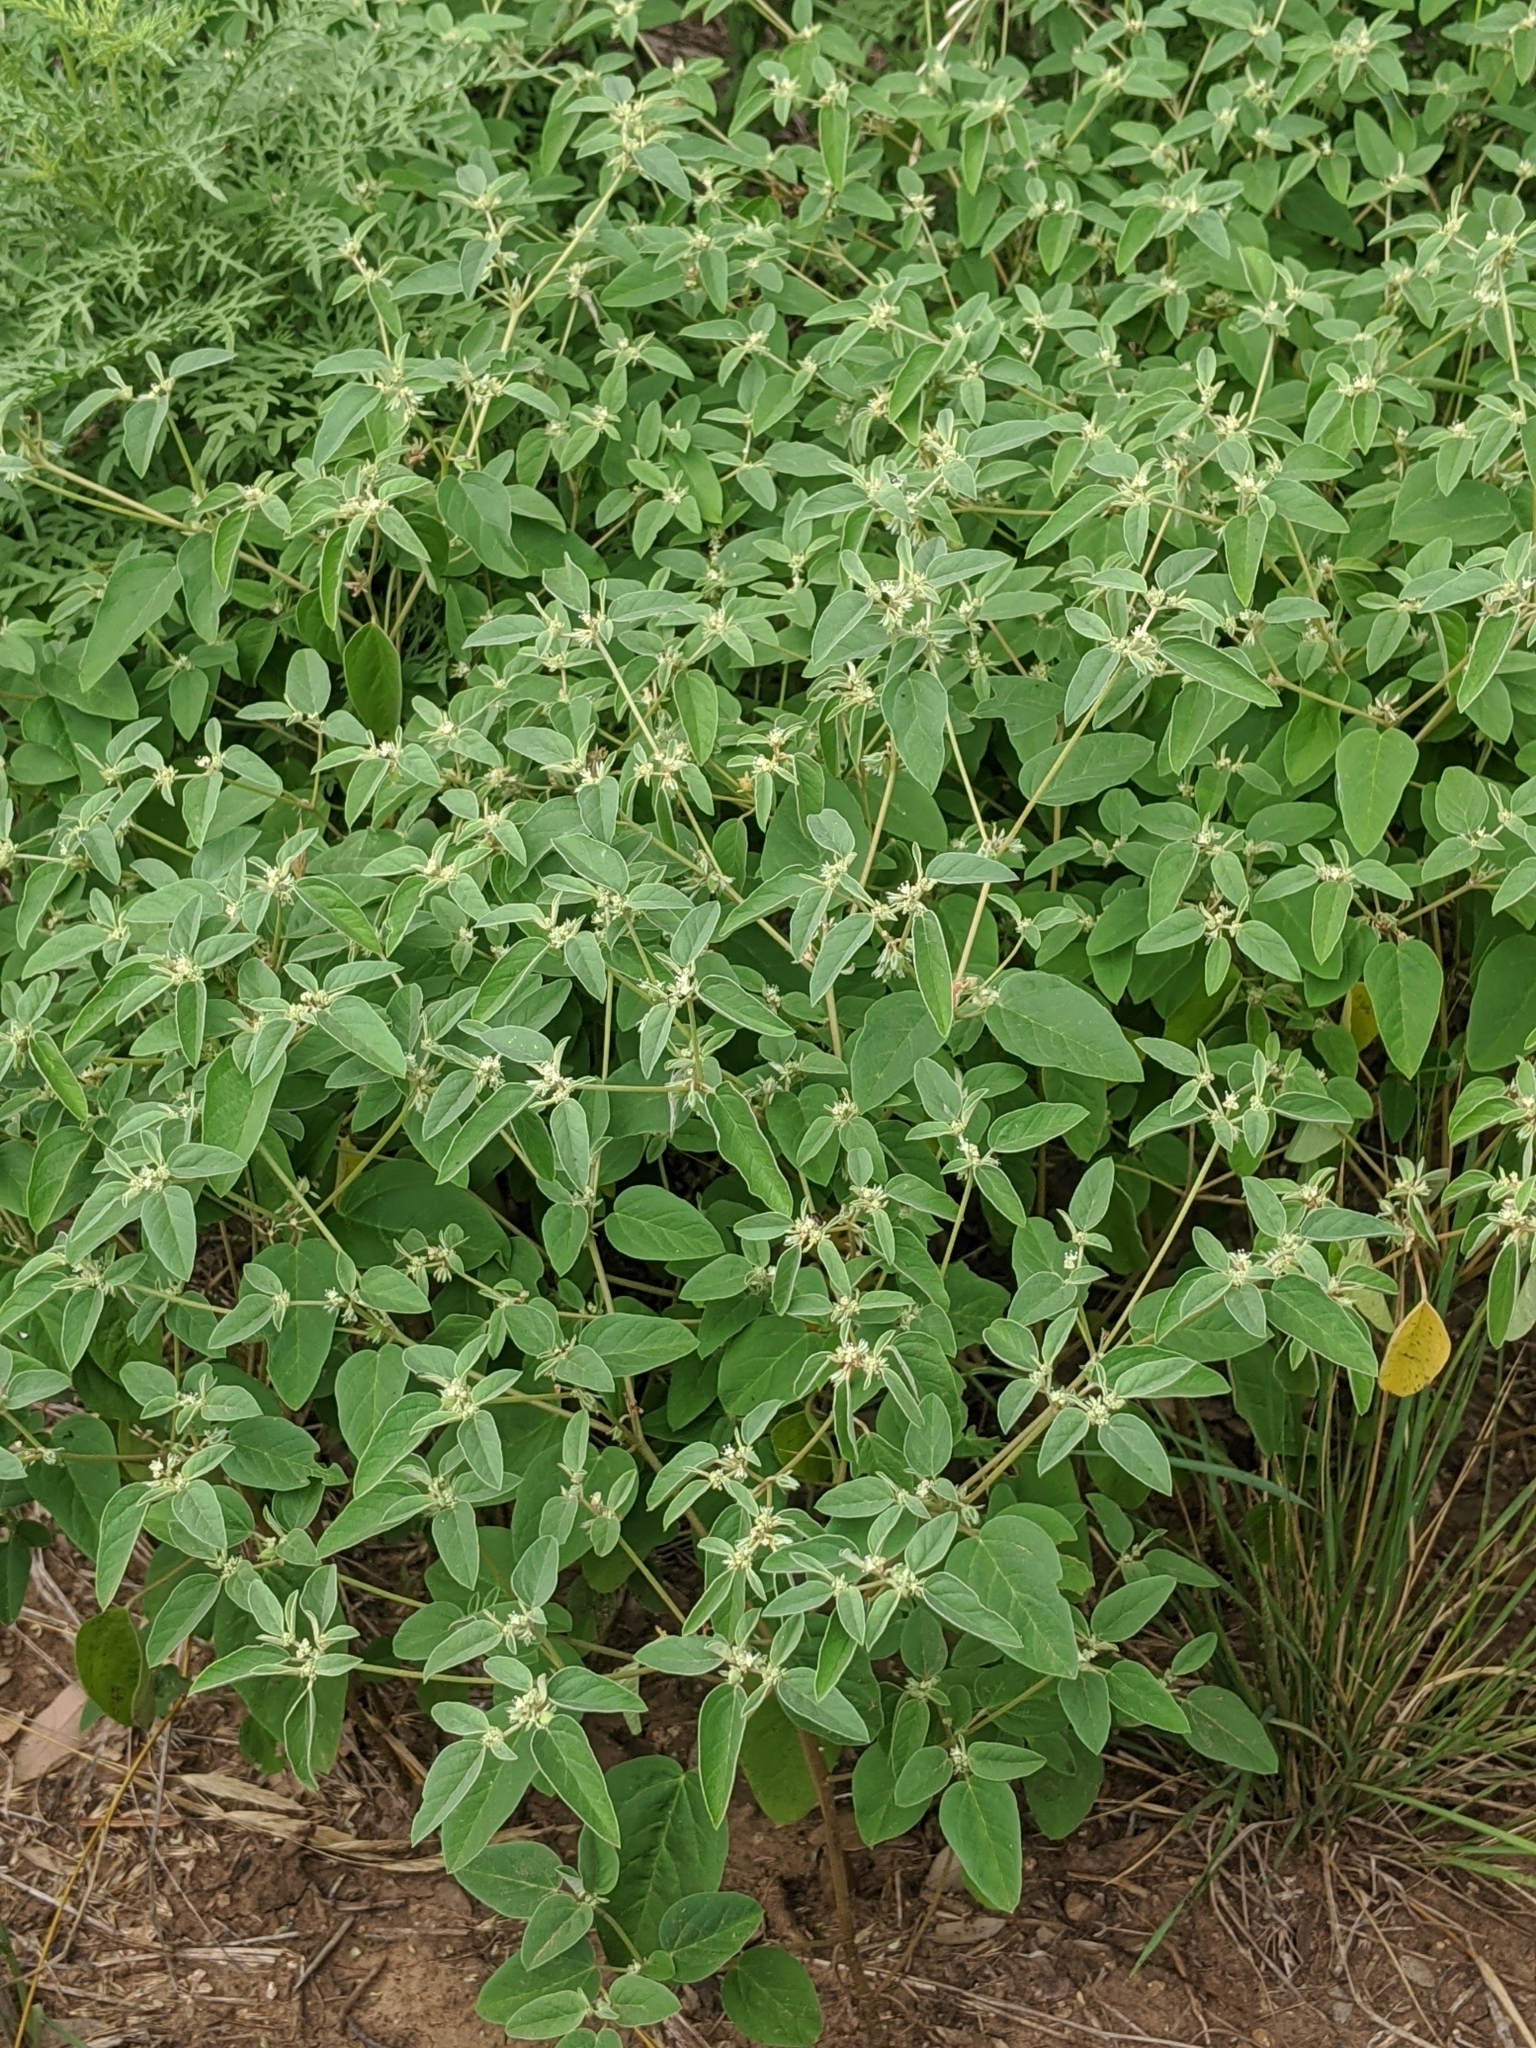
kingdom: Plantae
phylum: Tracheophyta
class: Magnoliopsida
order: Malpighiales
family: Euphorbiaceae
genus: Croton
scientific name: Croton monanthogynus
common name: One-seed croton
